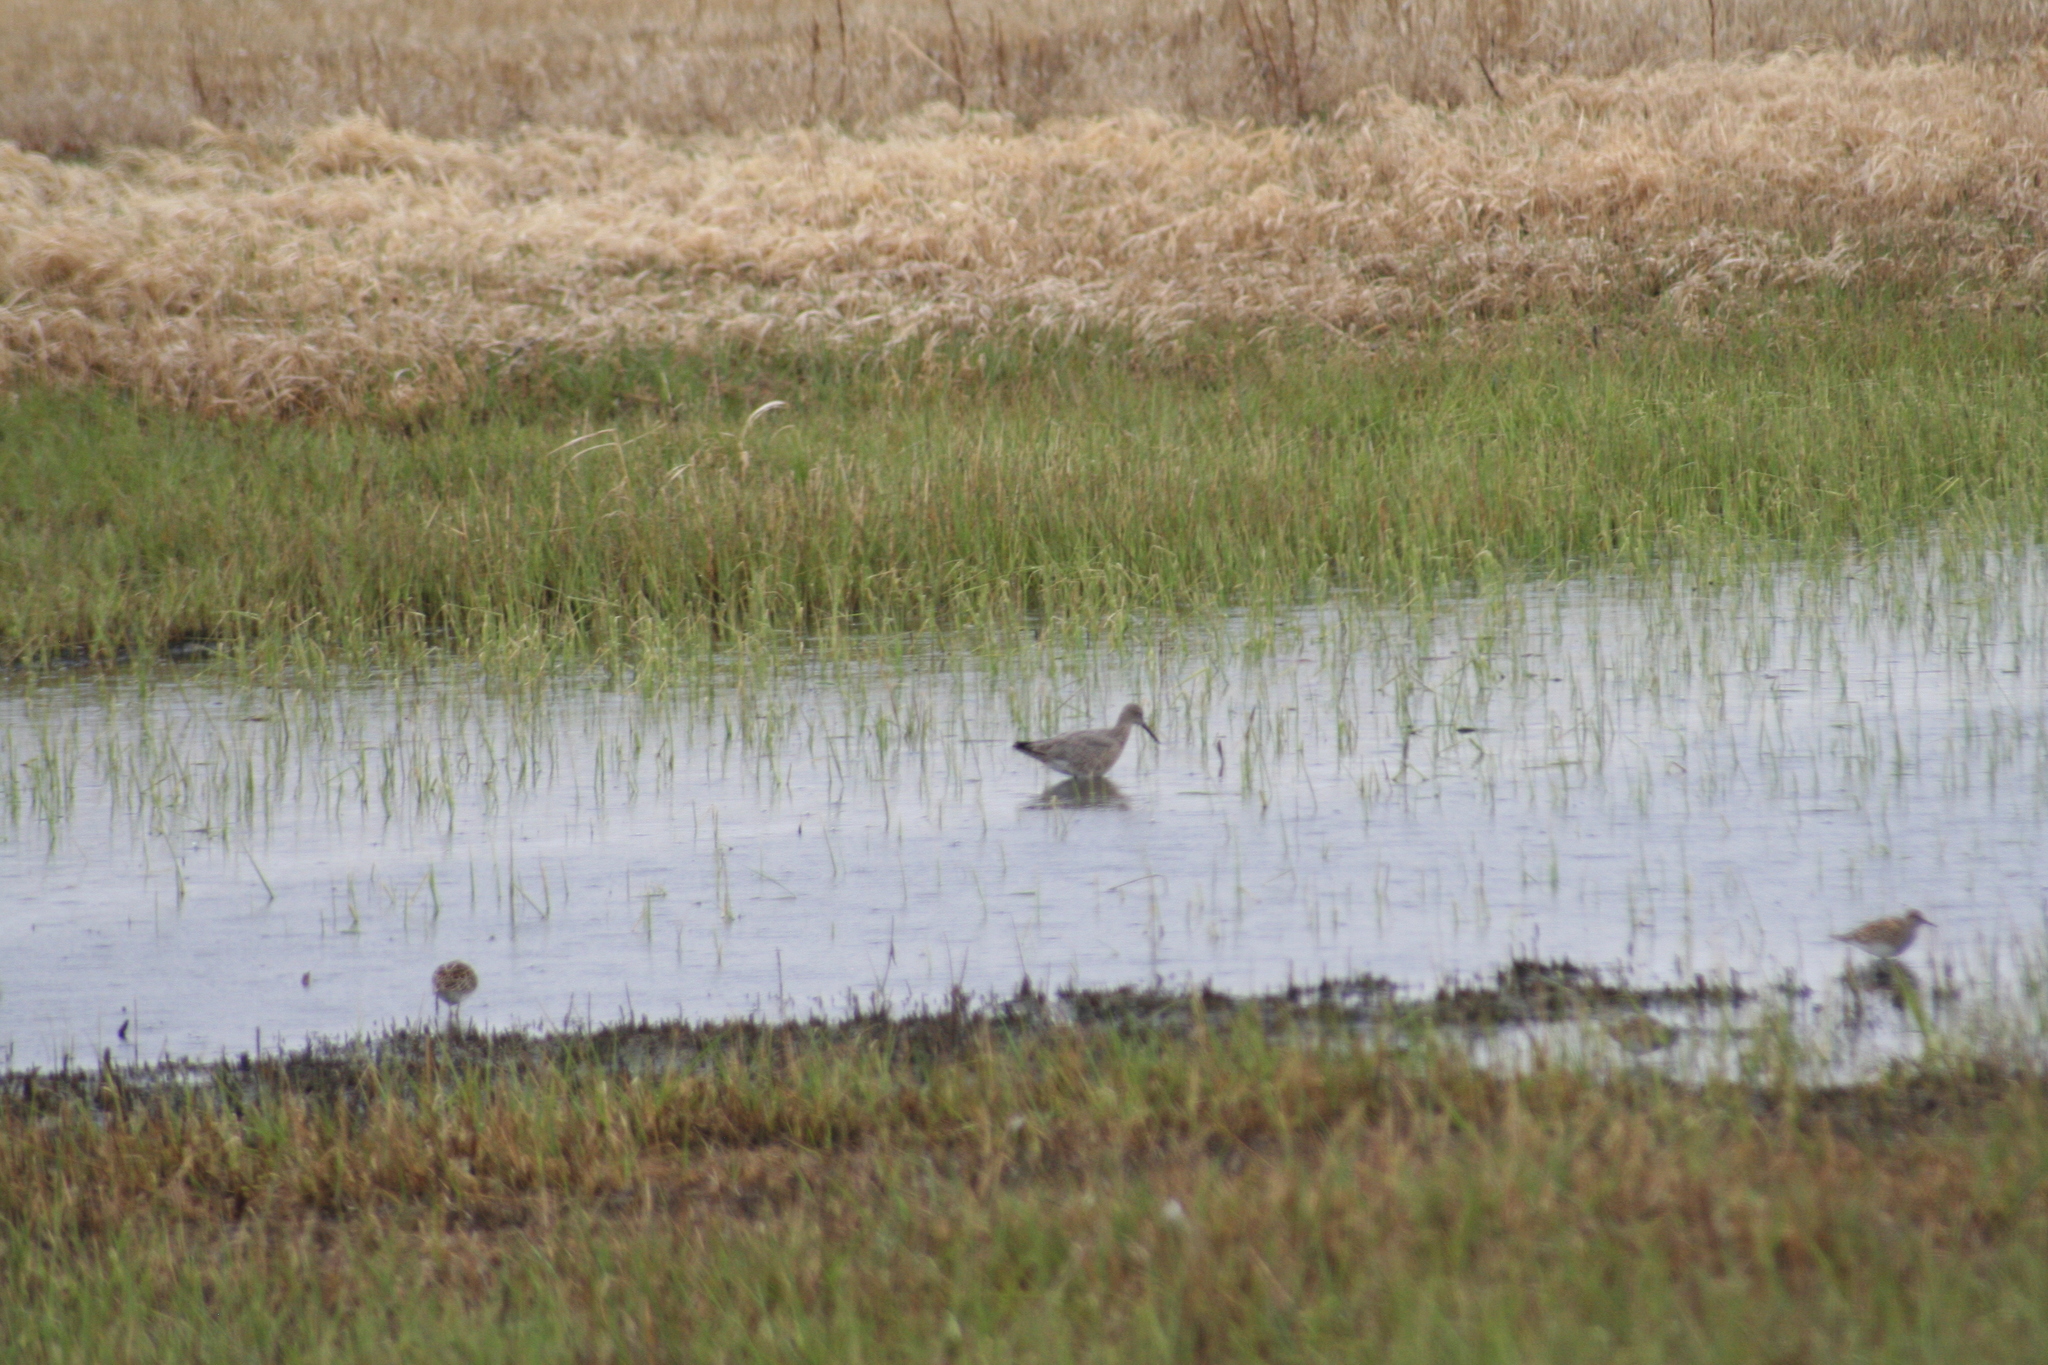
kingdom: Animalia
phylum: Chordata
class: Aves
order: Charadriiformes
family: Scolopacidae
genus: Tringa
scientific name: Tringa semipalmata
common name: Willet
